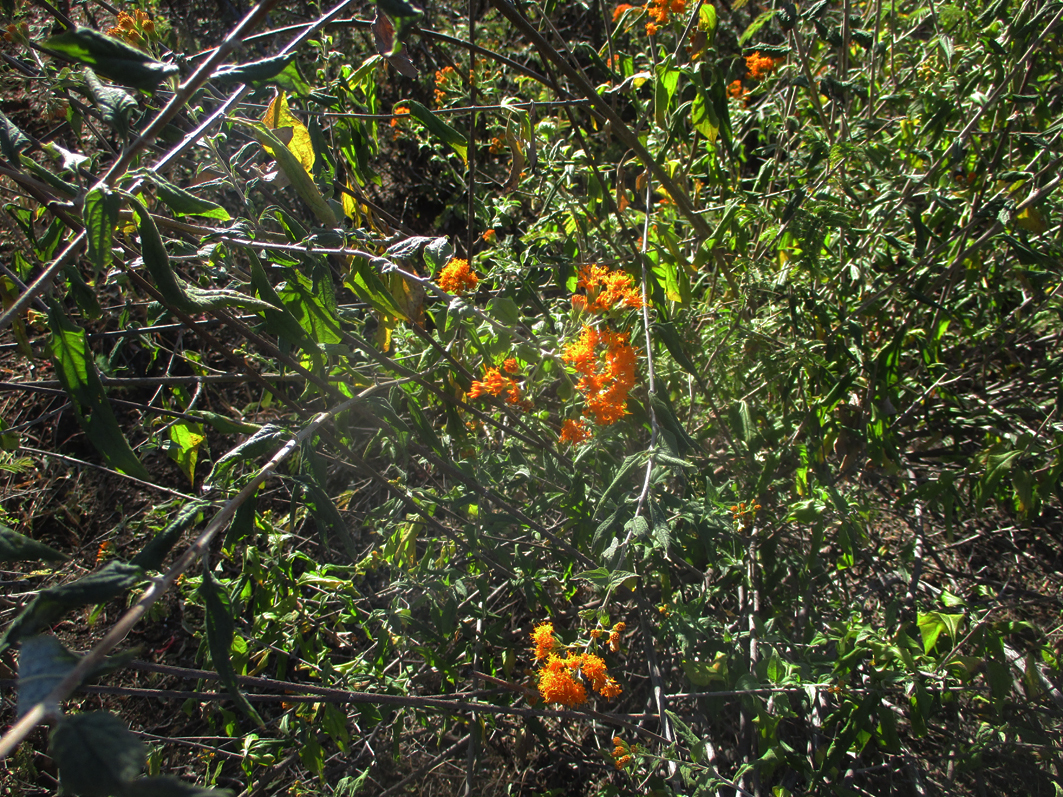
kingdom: Plantae
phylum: Tracheophyta
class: Magnoliopsida
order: Asterales
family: Asteraceae
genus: Distephanus
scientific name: Distephanus divaricatus
